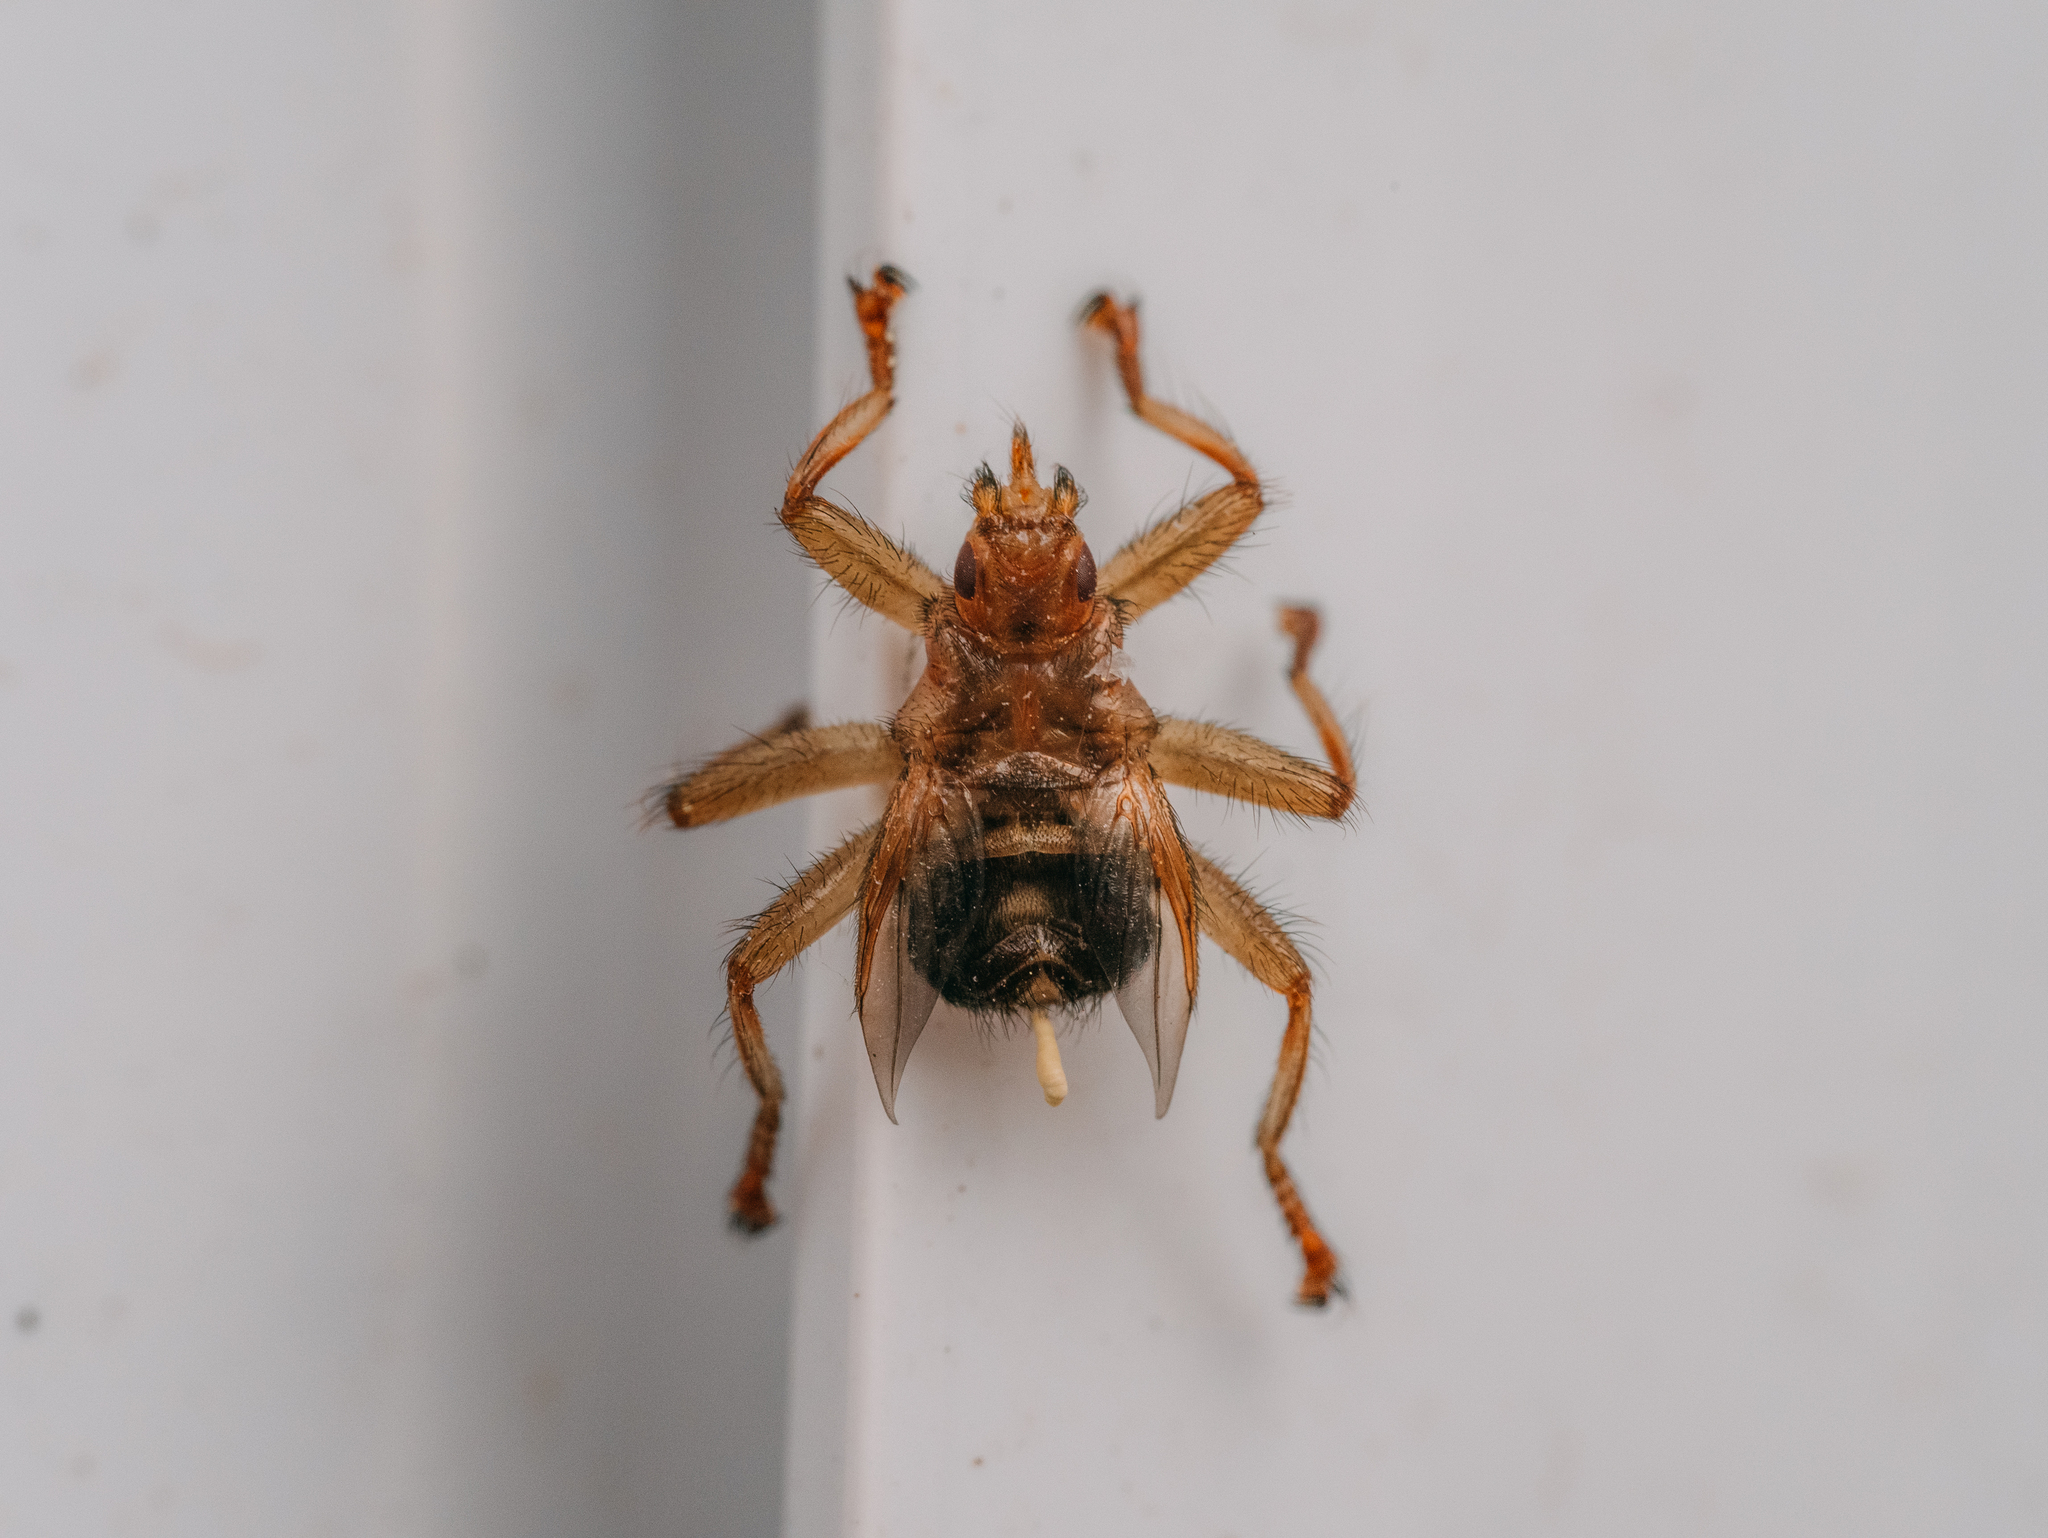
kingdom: Animalia
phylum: Arthropoda
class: Insecta
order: Diptera
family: Hippoboscidae
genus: Crataerina
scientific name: Crataerina pallida
